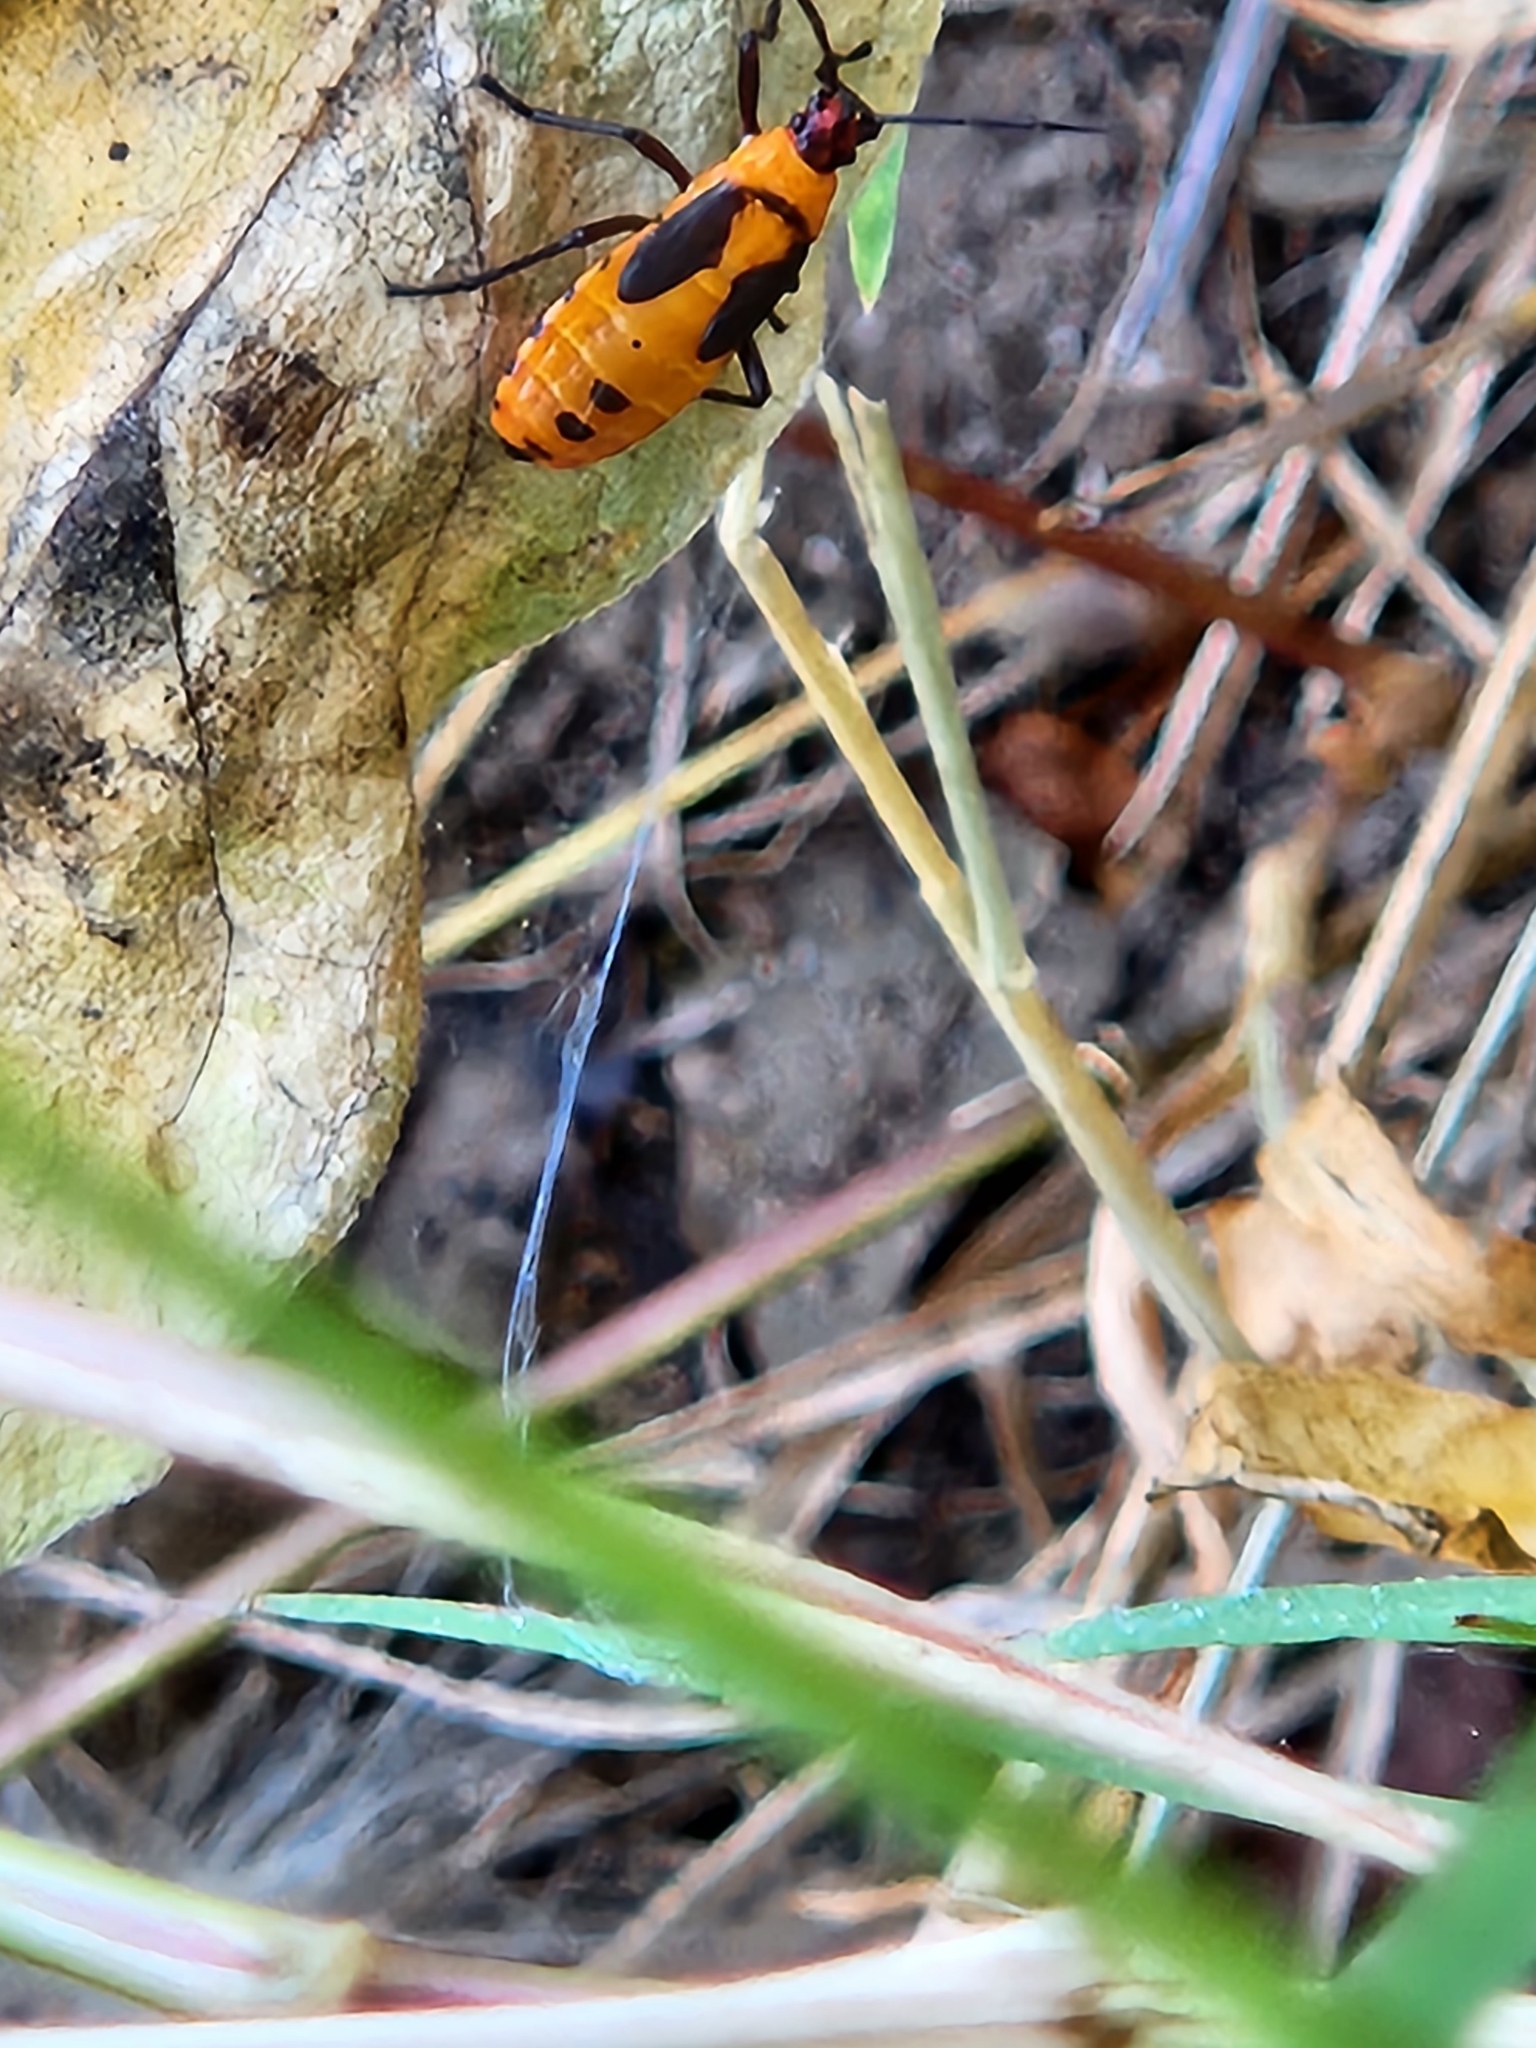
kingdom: Animalia
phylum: Arthropoda
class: Insecta
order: Hemiptera
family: Lygaeidae
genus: Oncopeltus
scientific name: Oncopeltus fasciatus
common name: Large milkweed bug
